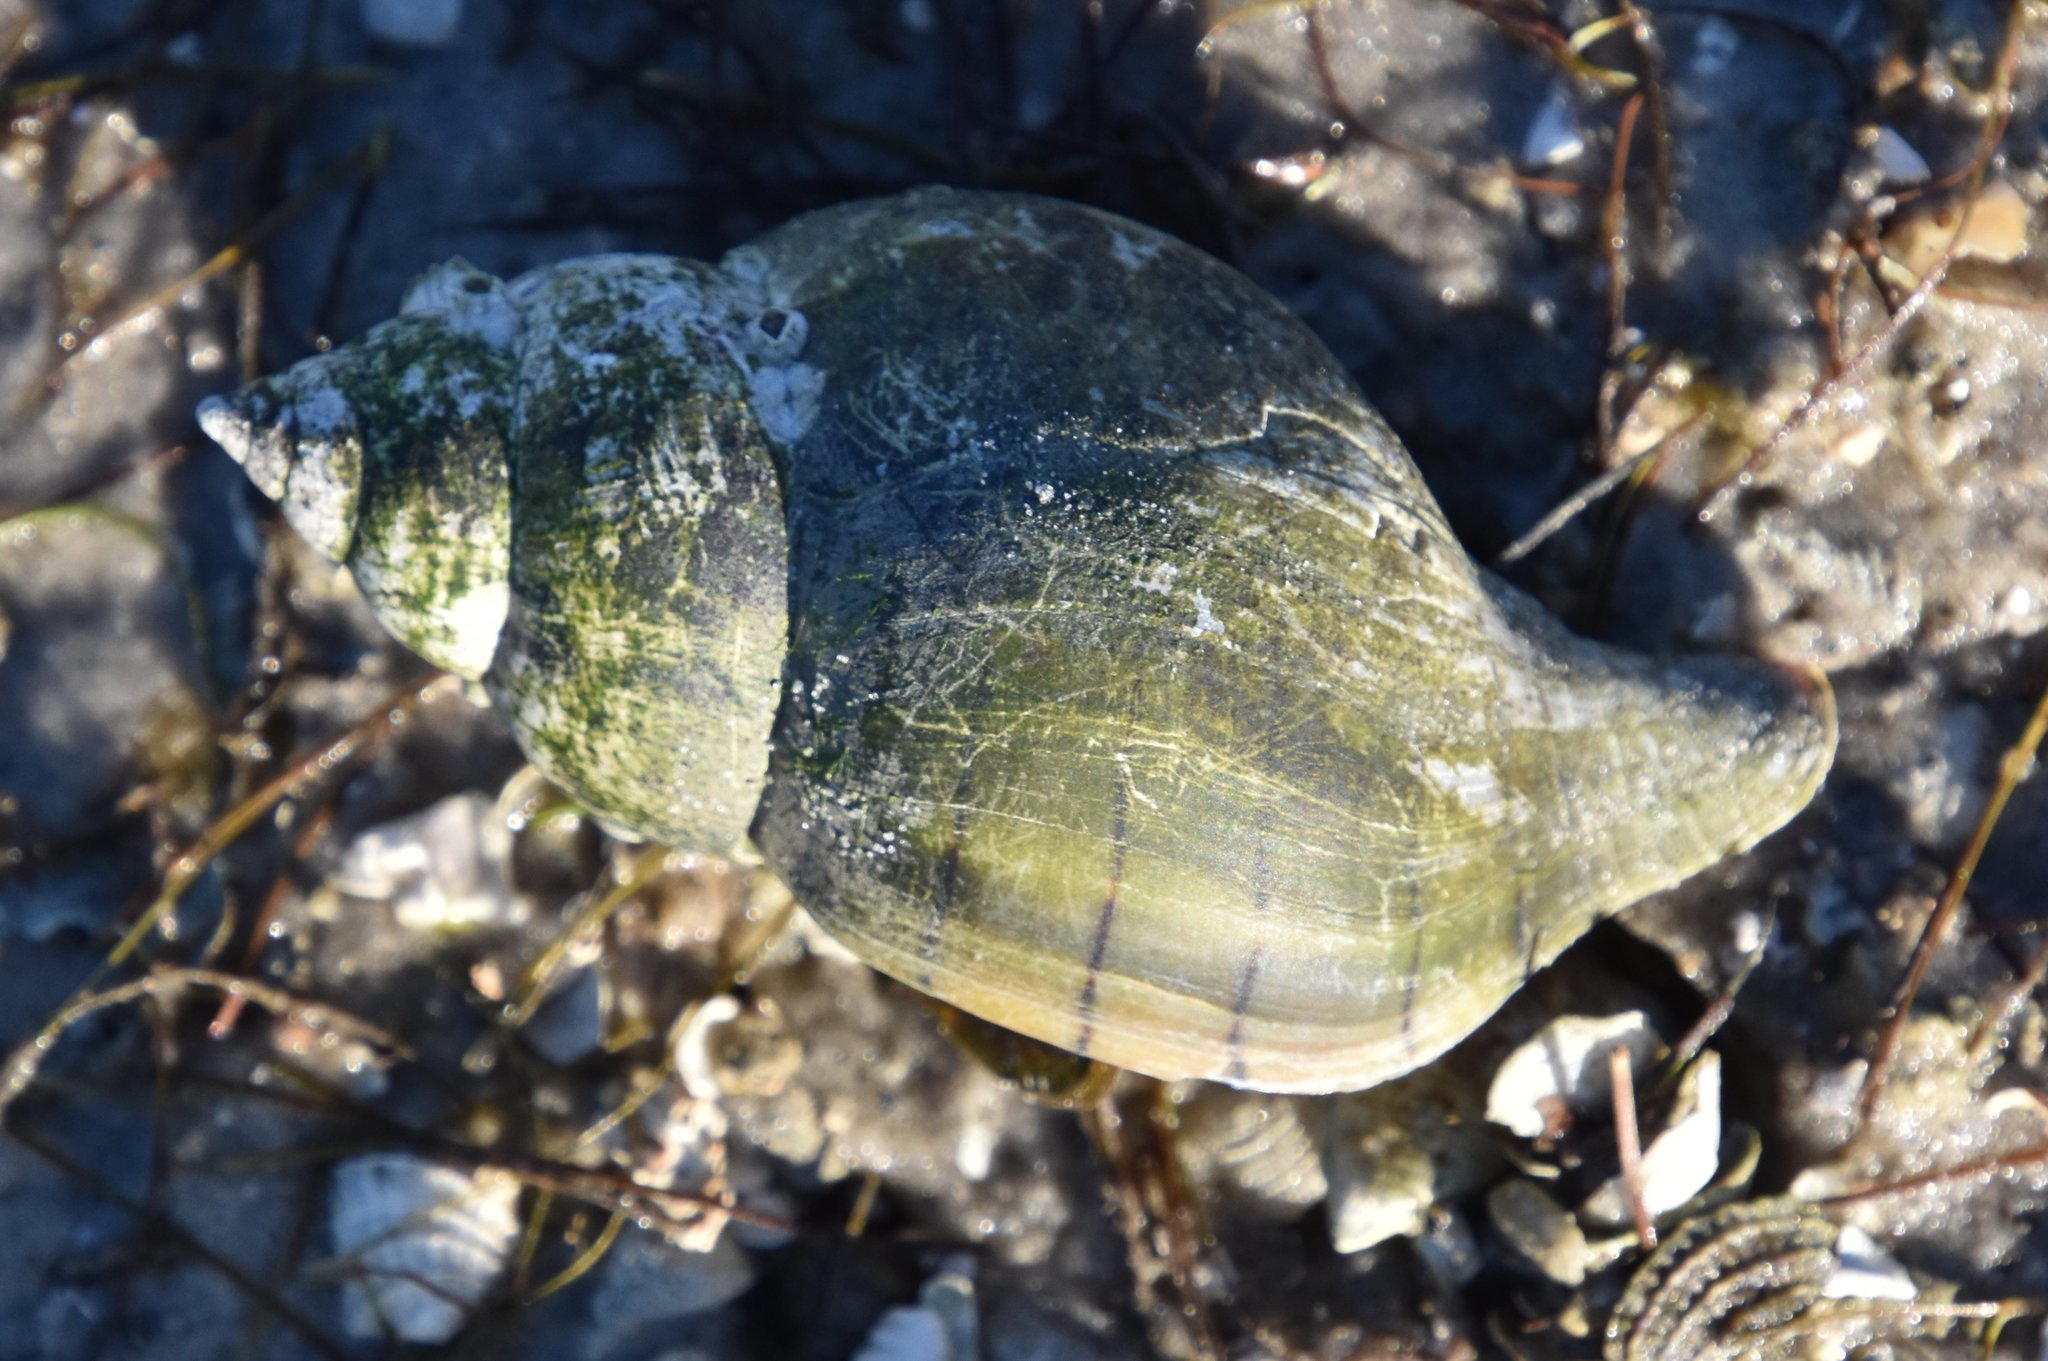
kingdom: Animalia
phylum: Mollusca
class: Gastropoda
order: Neogastropoda
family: Fasciolariidae
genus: Cinctura
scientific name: Cinctura hunteria
